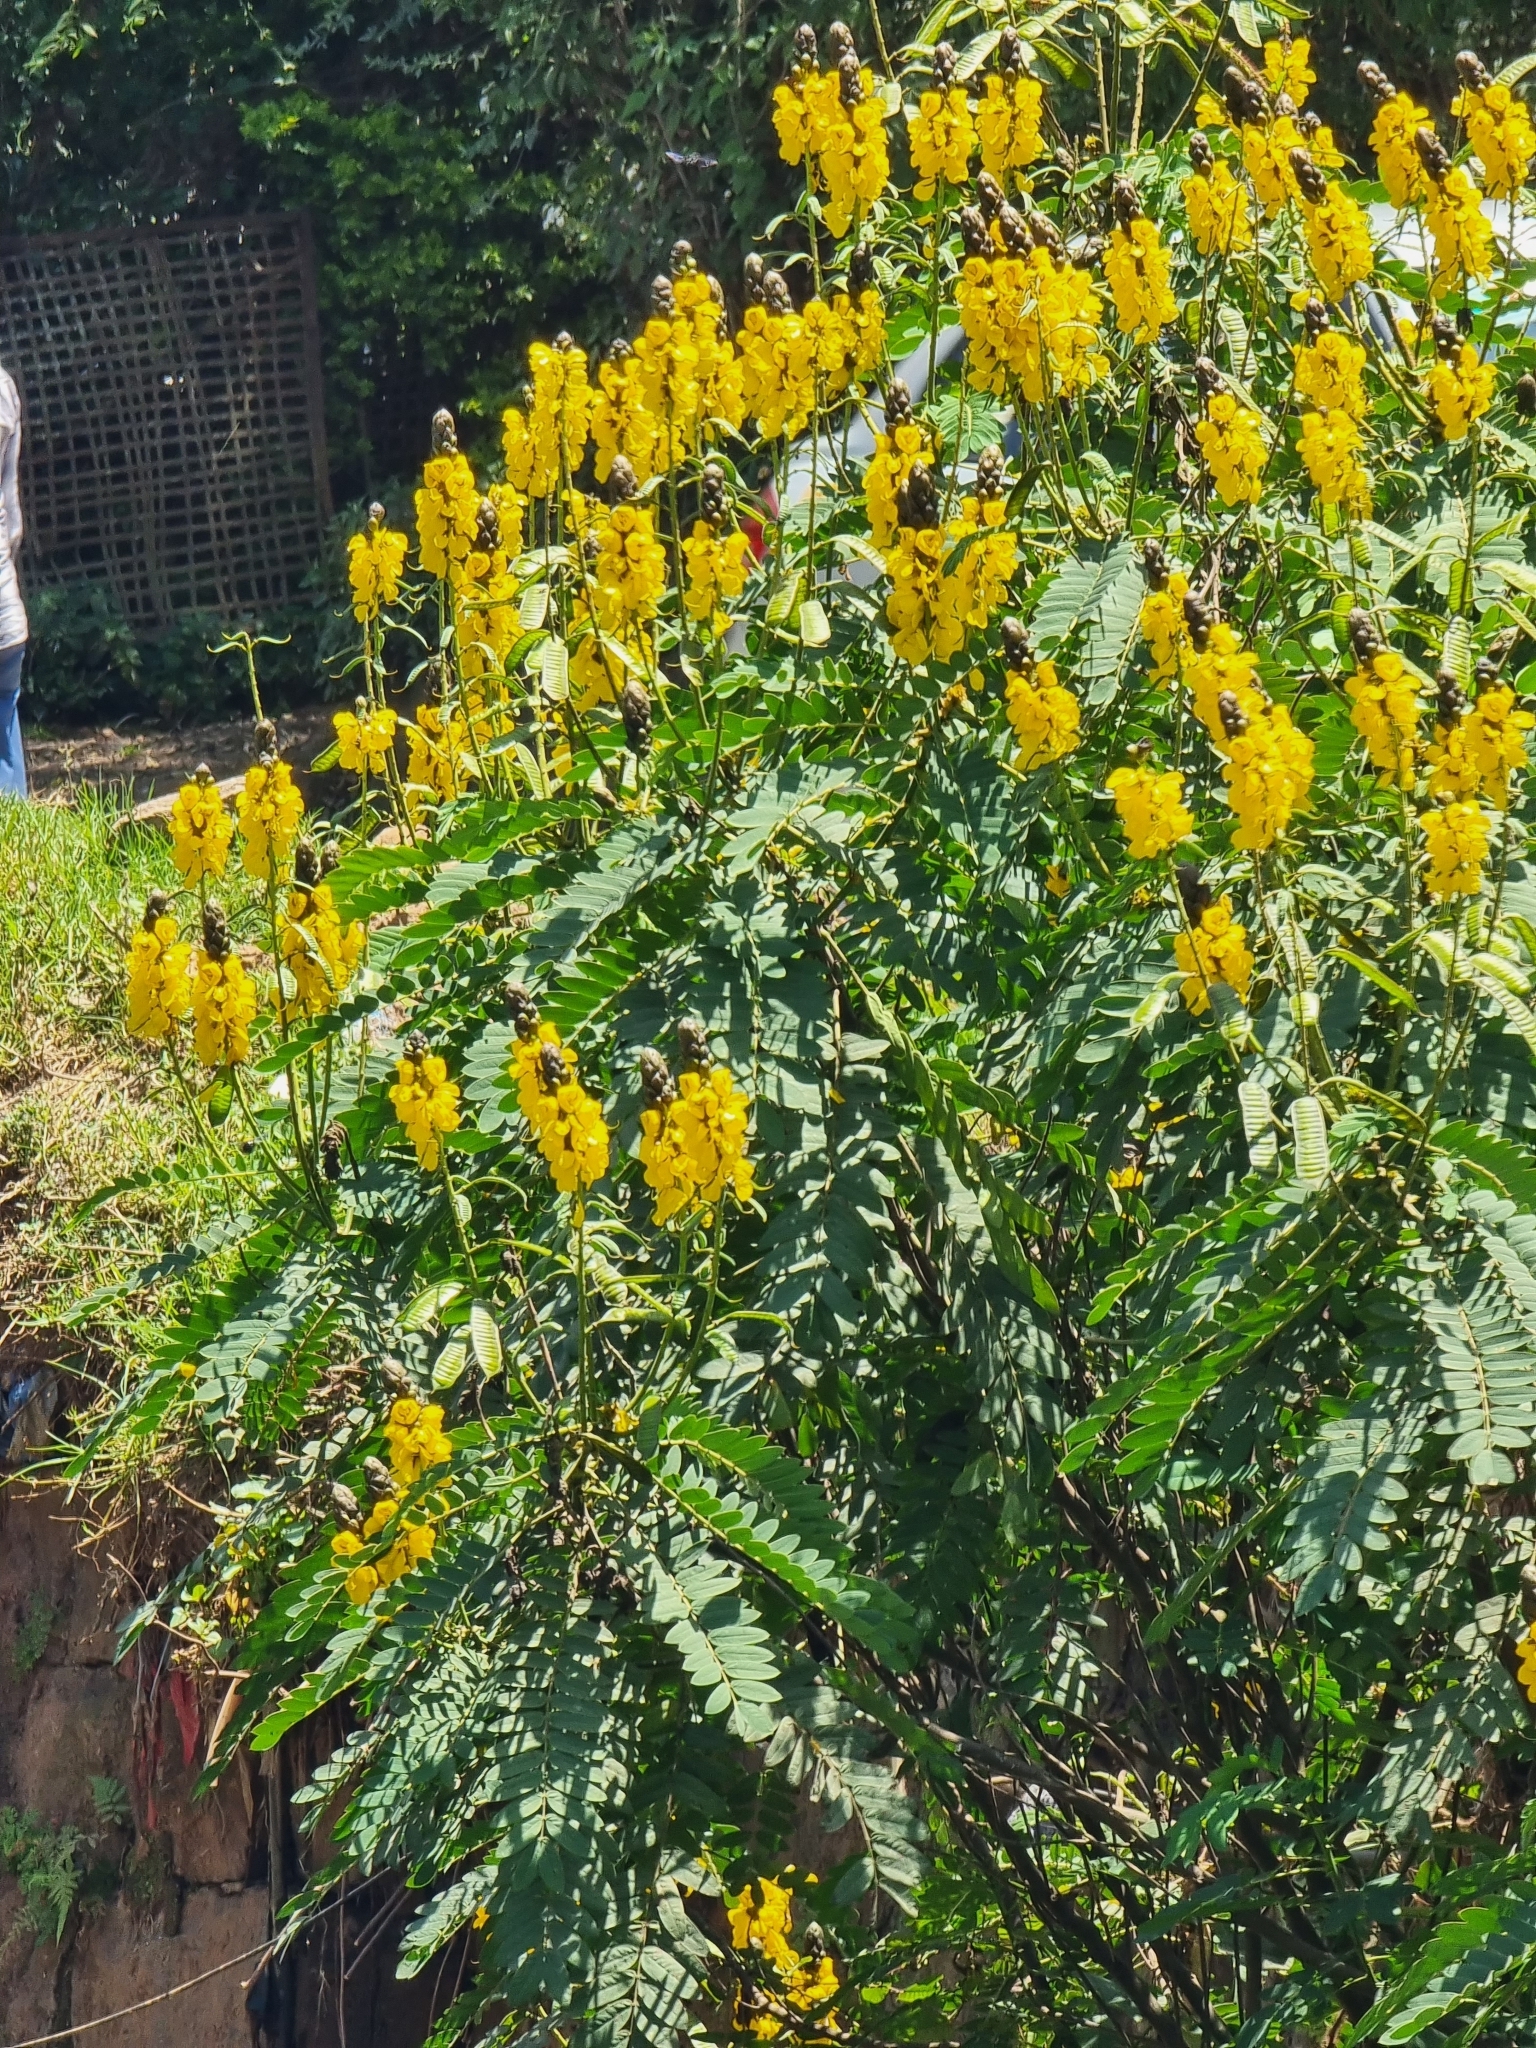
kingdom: Plantae
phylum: Tracheophyta
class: Magnoliopsida
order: Fabales
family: Fabaceae
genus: Senna
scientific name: Senna didymobotrya
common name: African senna
